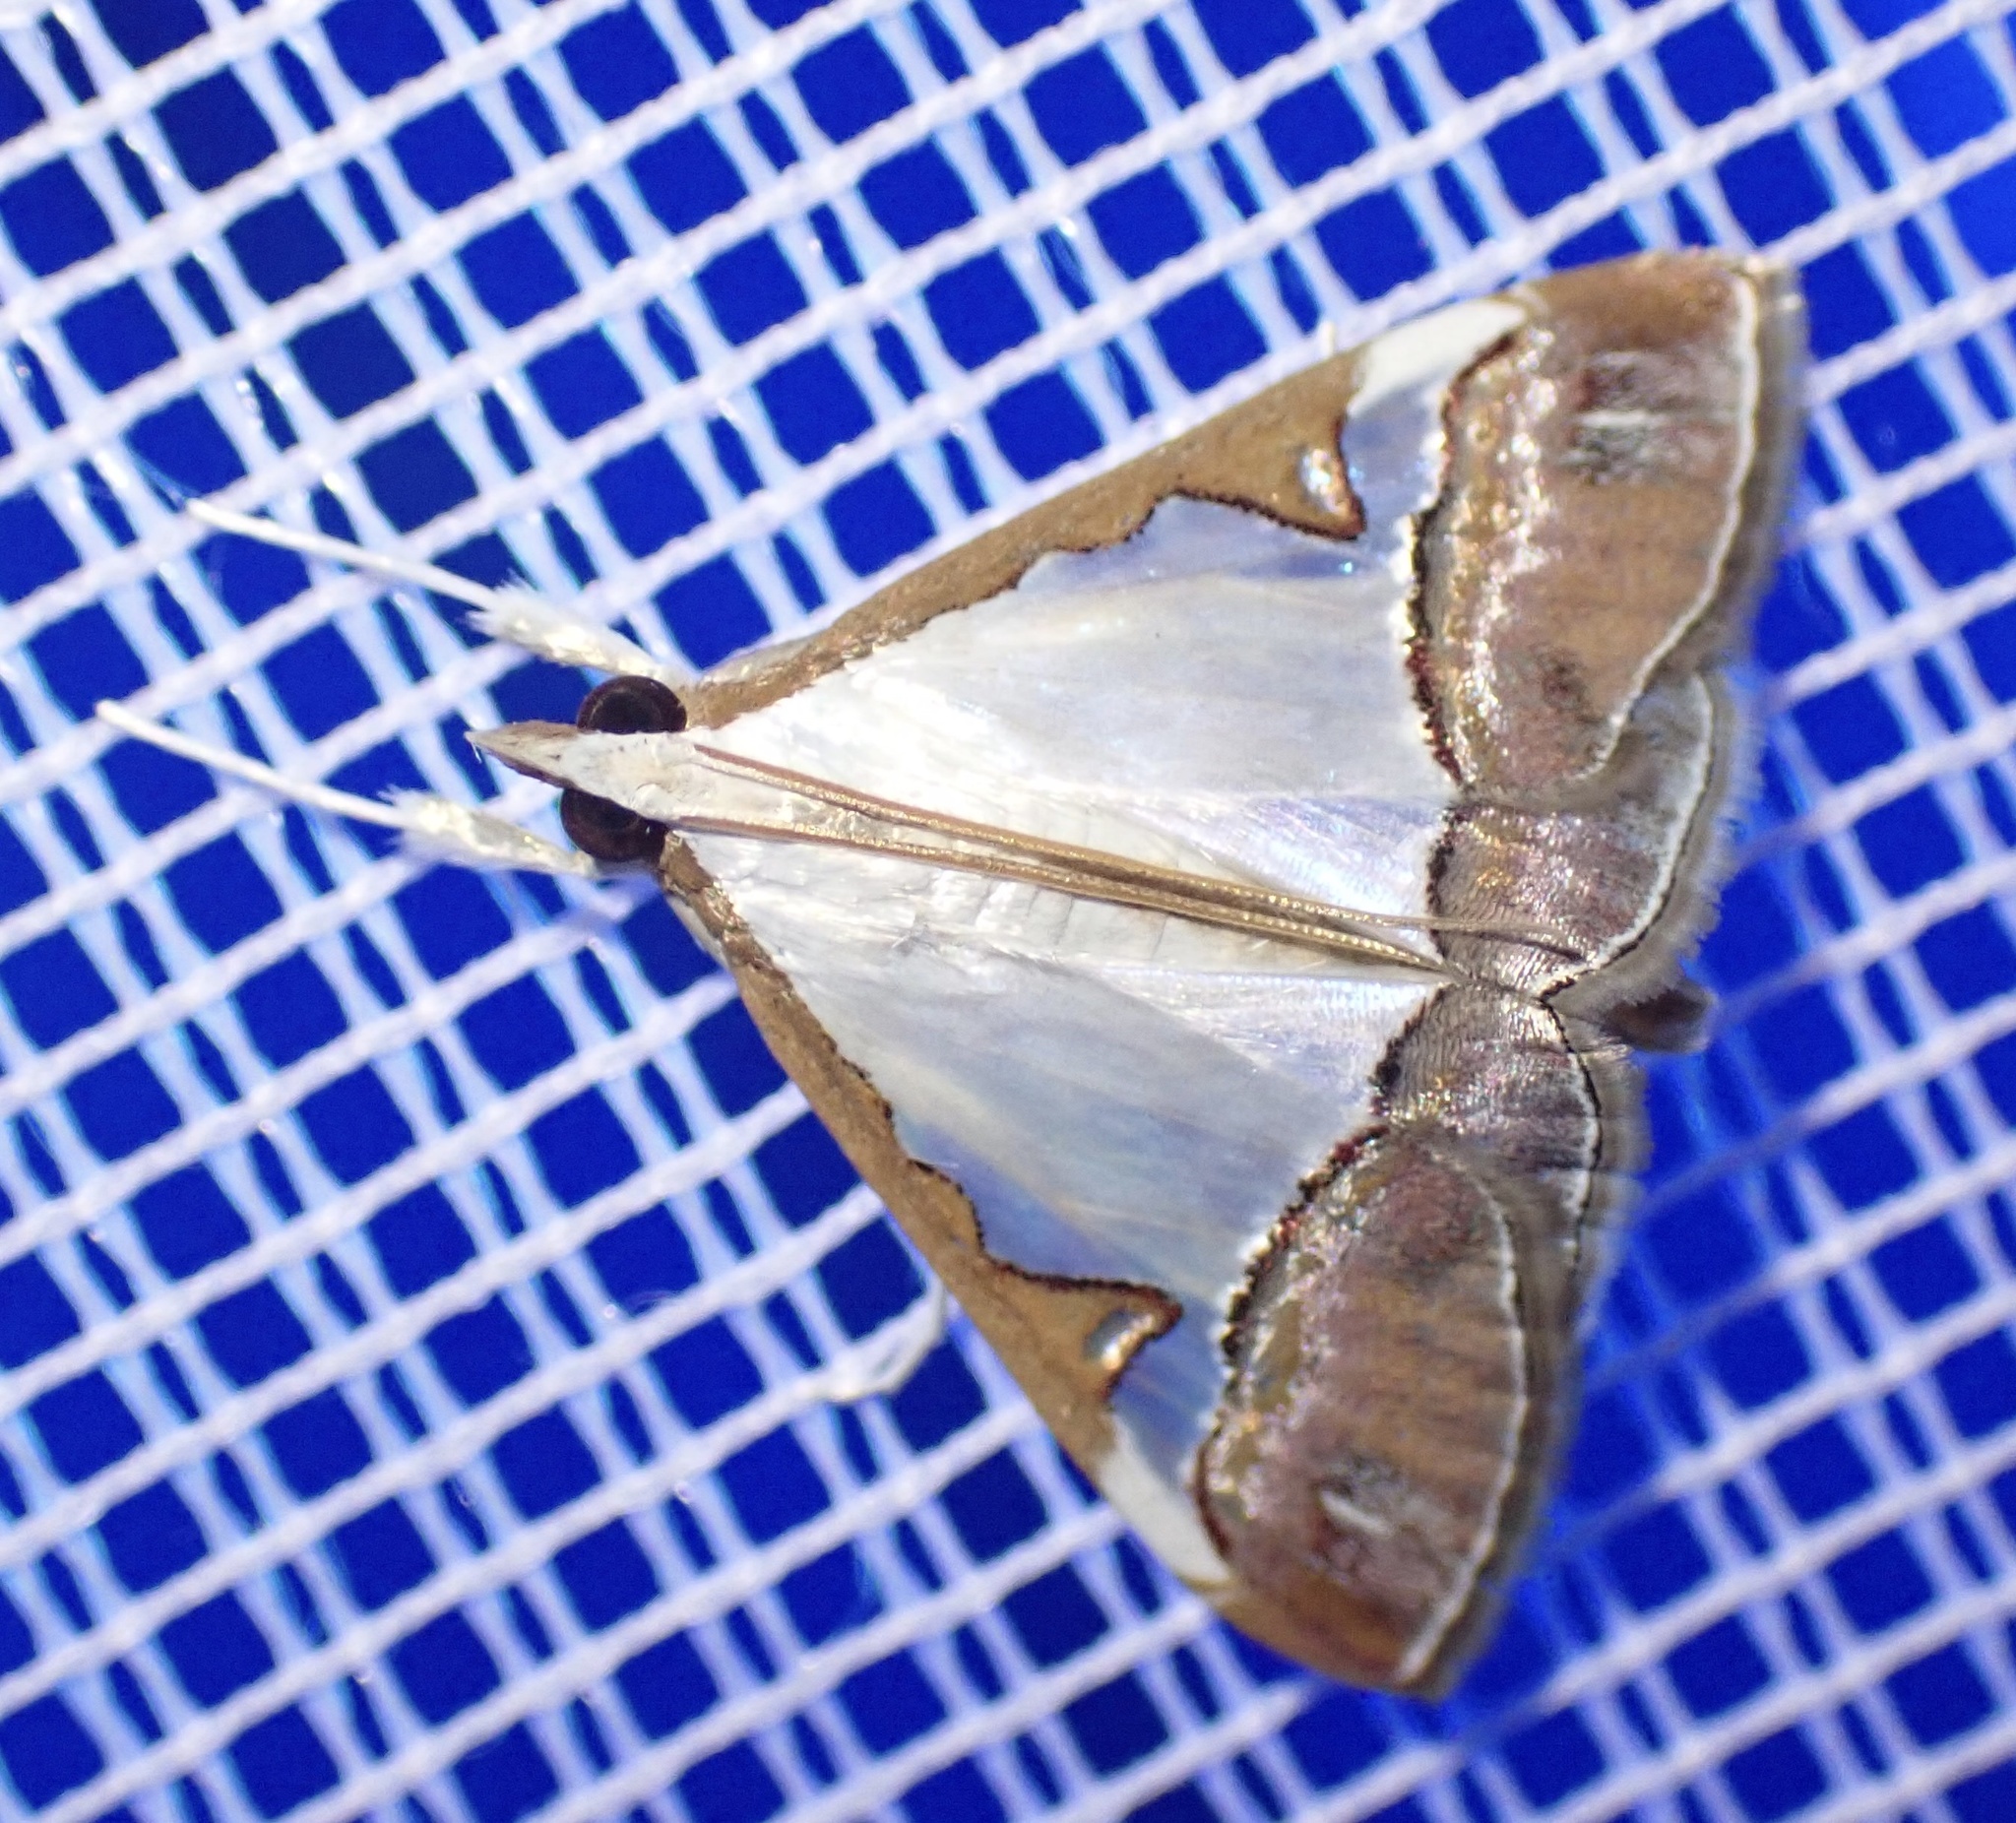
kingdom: Animalia
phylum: Arthropoda
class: Insecta
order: Lepidoptera
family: Crambidae
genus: Autocharis
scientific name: Autocharis margaritalis
